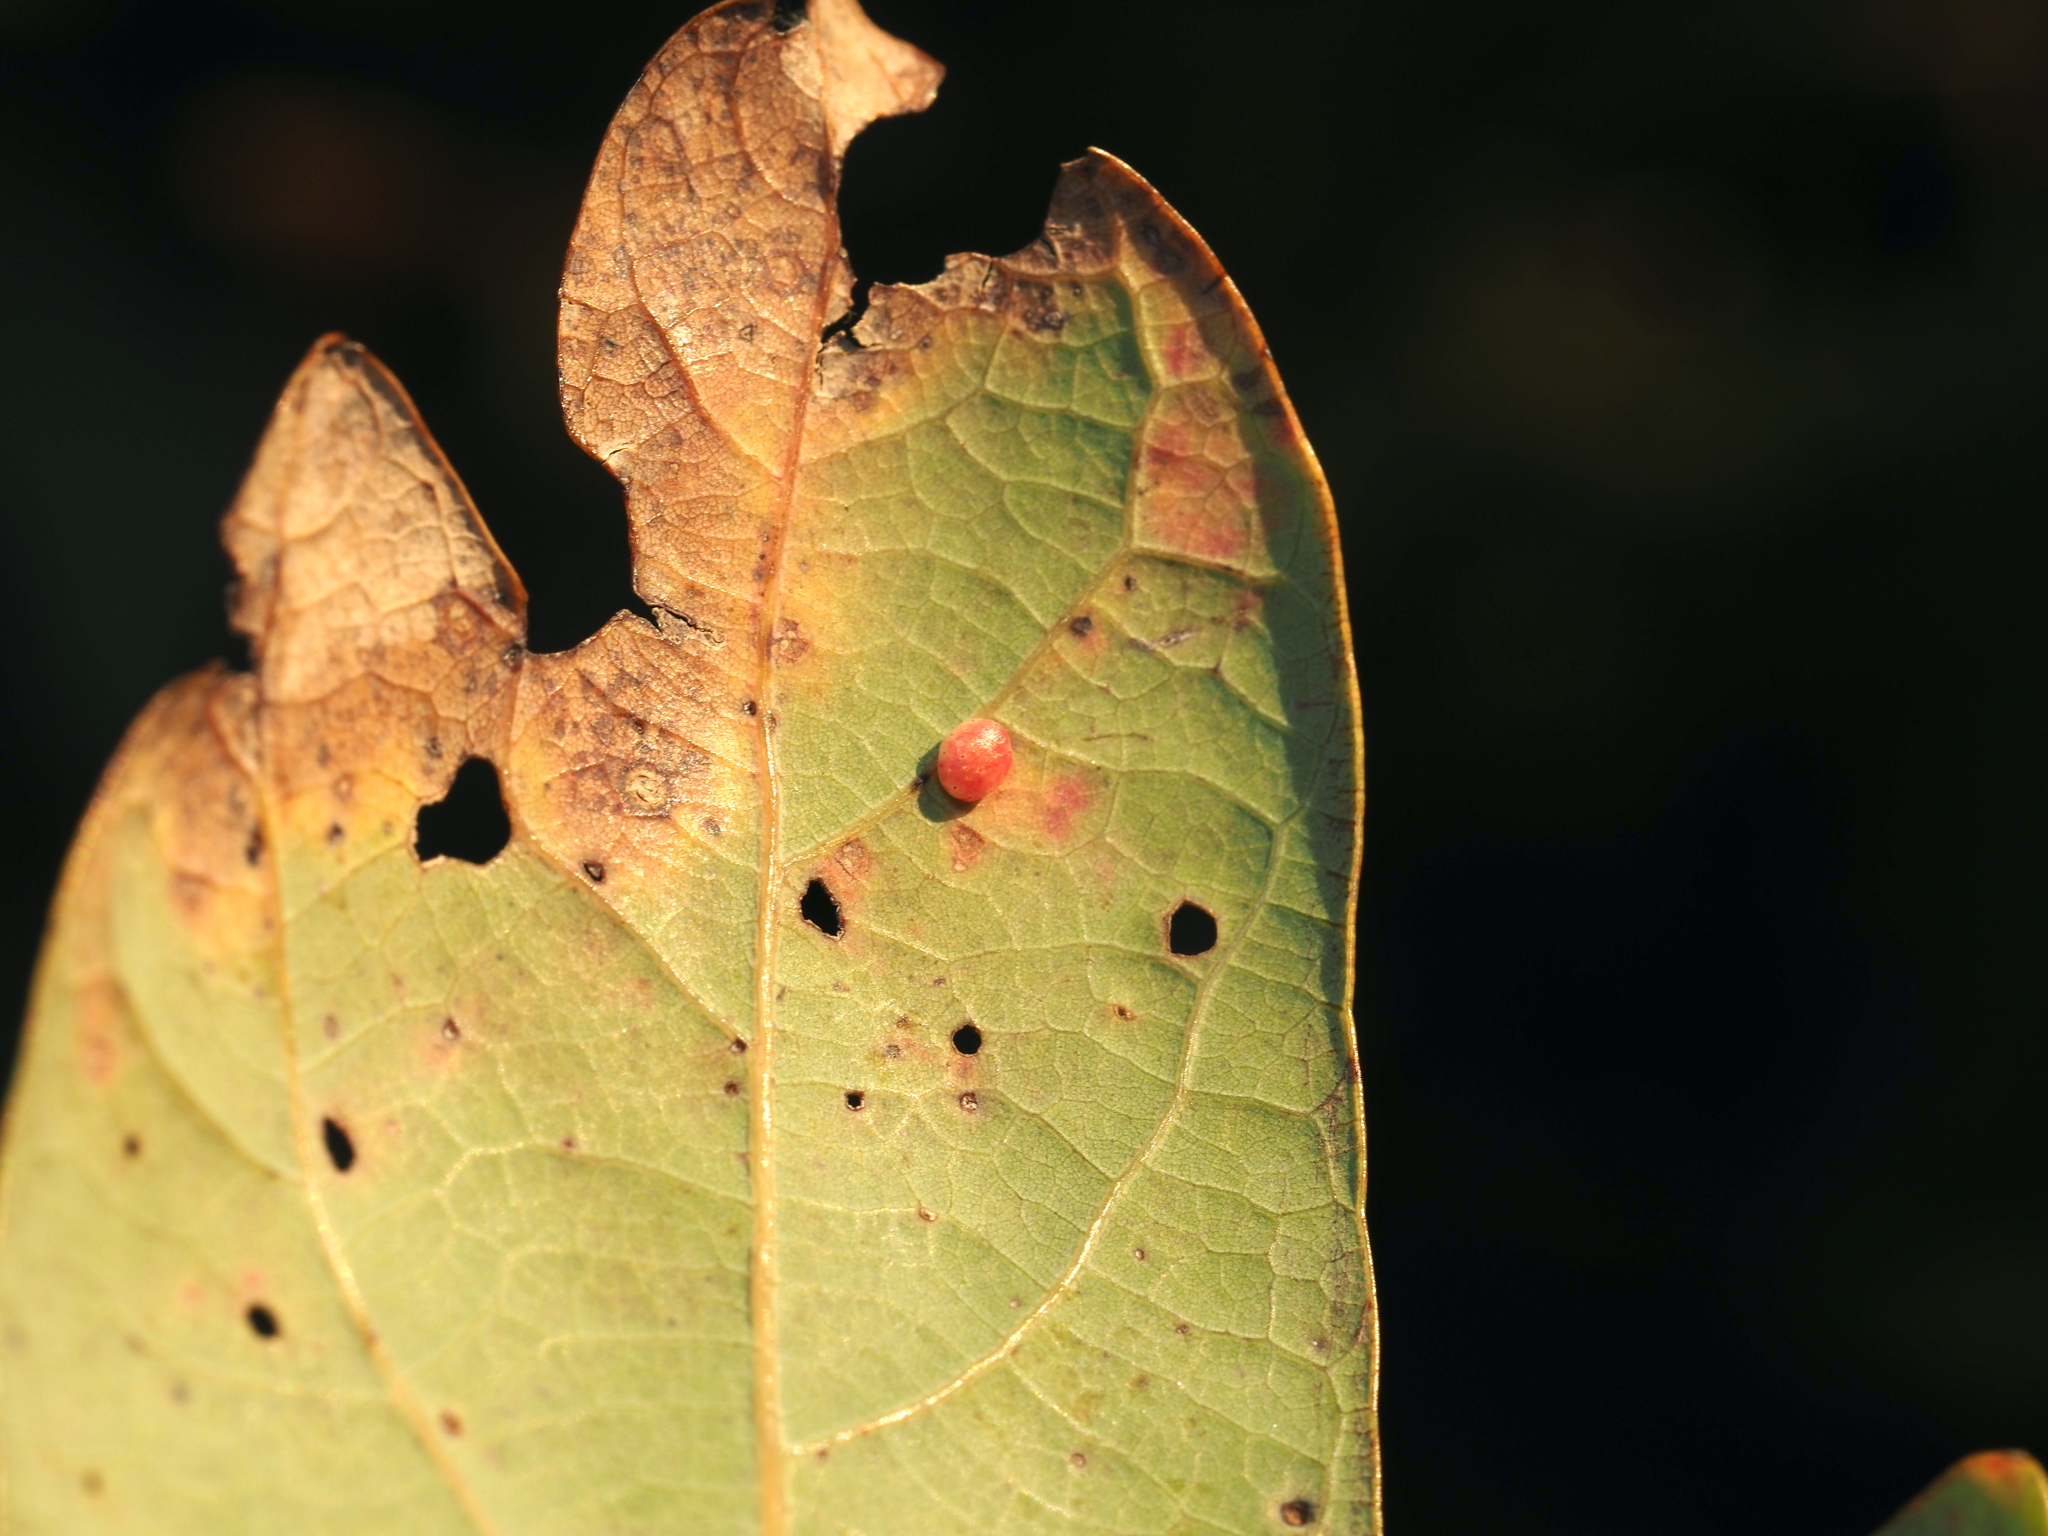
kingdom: Animalia
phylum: Arthropoda
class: Insecta
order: Hymenoptera
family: Cynipidae
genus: Phylloteras
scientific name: Phylloteras
